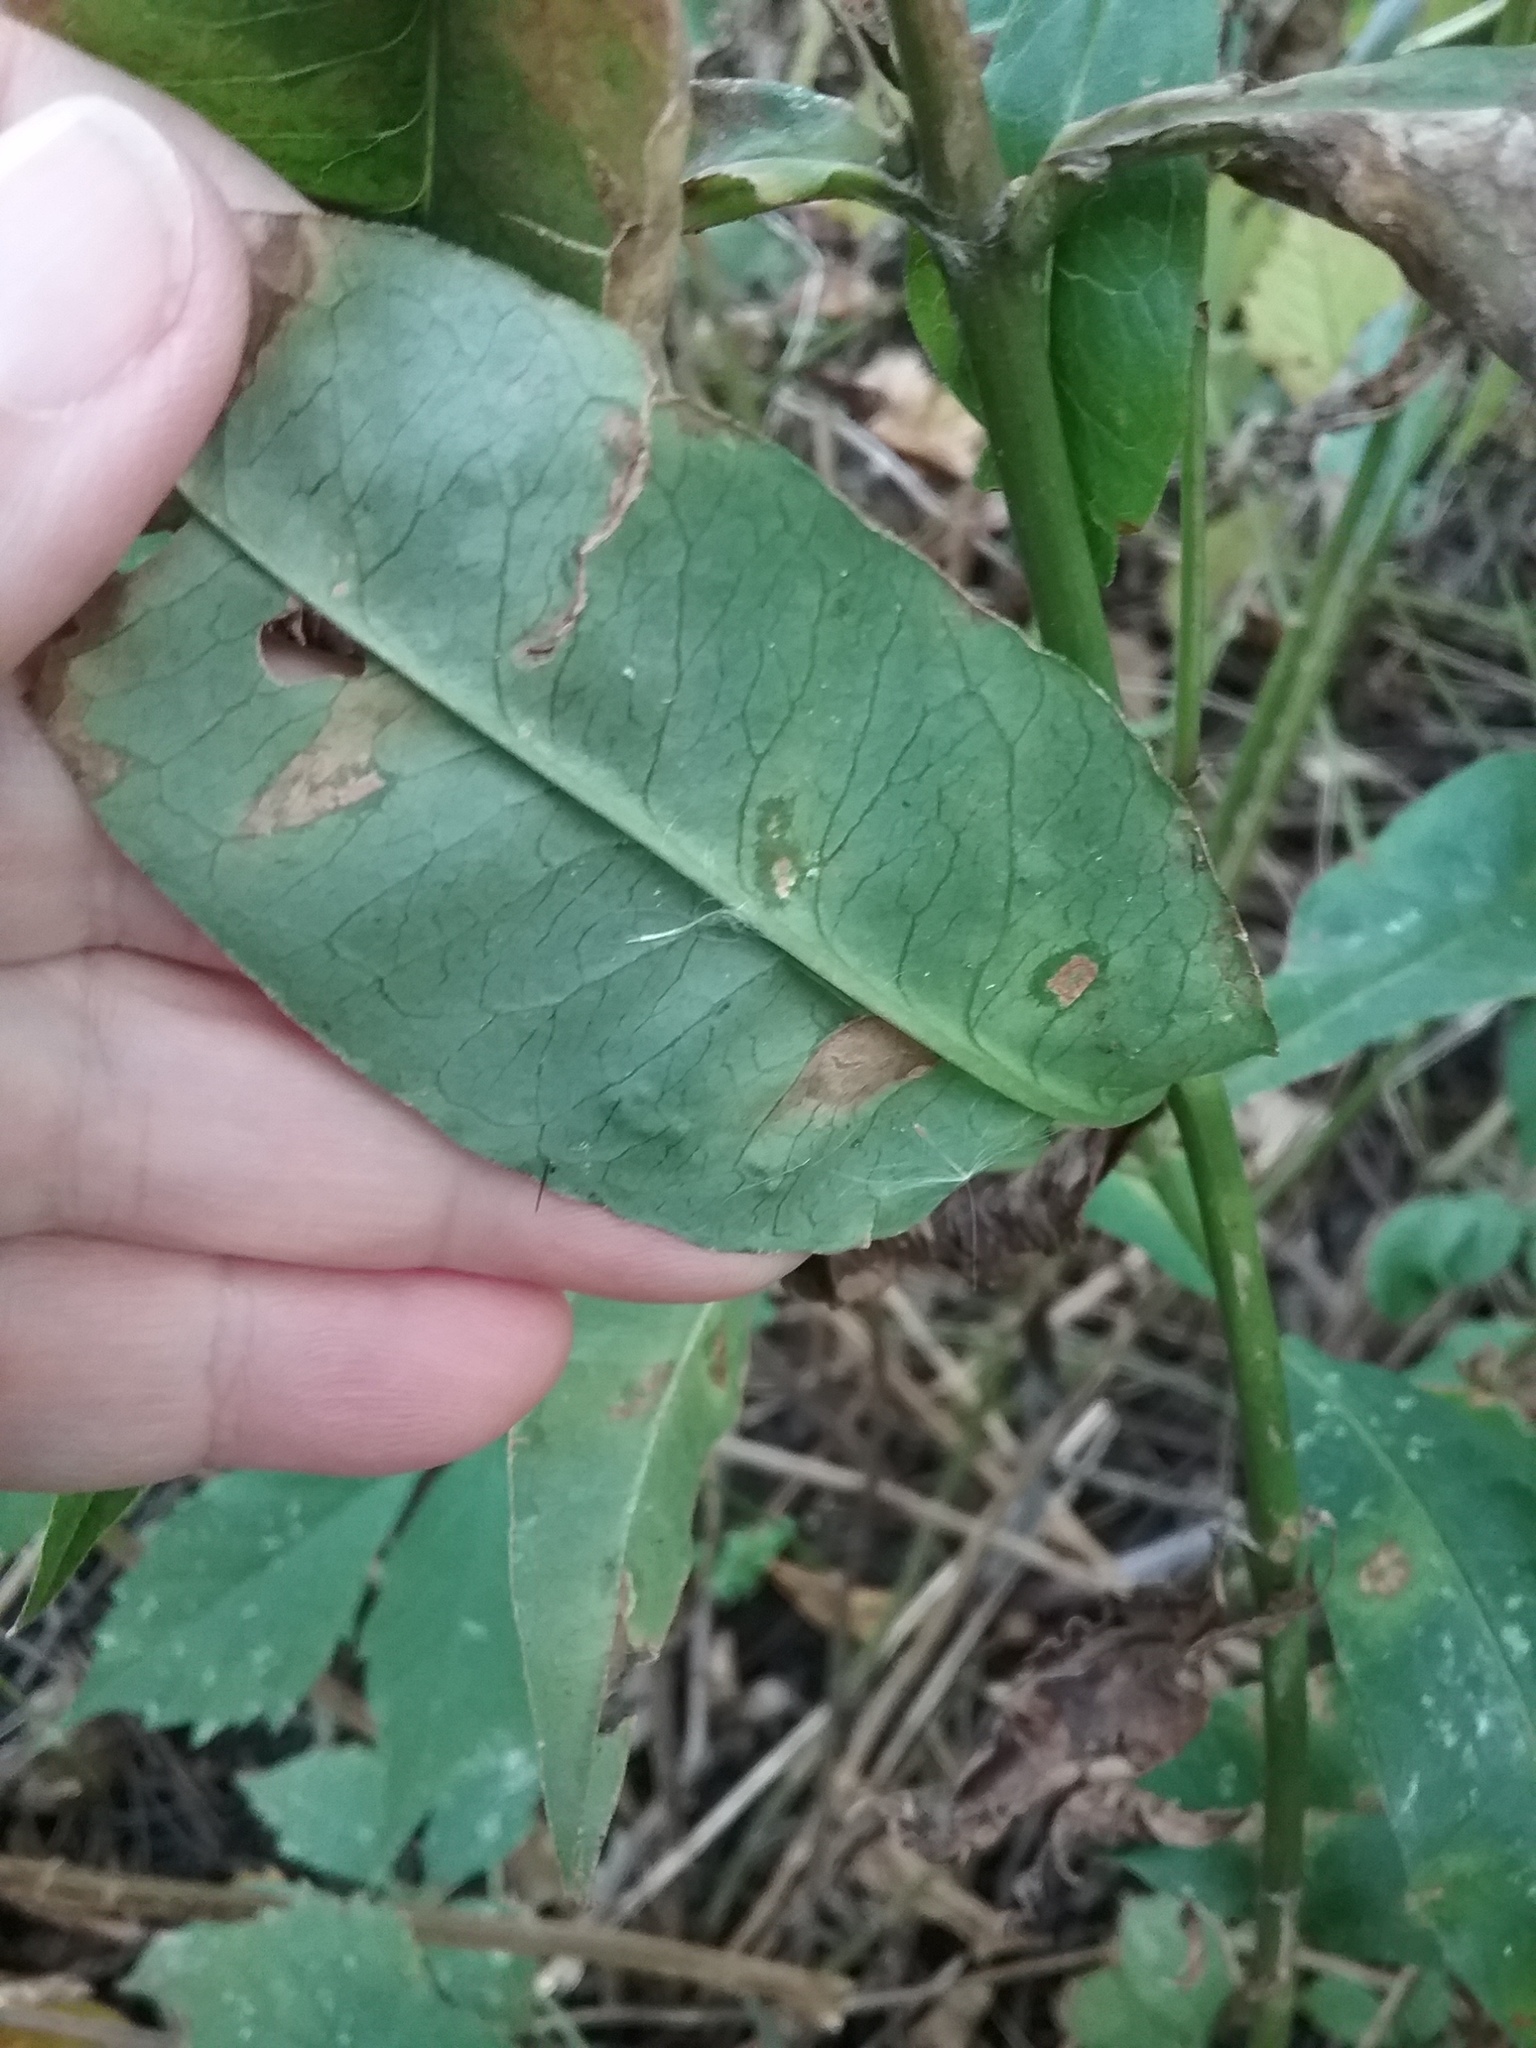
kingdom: Plantae
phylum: Tracheophyta
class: Magnoliopsida
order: Ericales
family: Polemoniaceae
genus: Phlox
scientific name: Phlox paniculata
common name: Fall phlox
